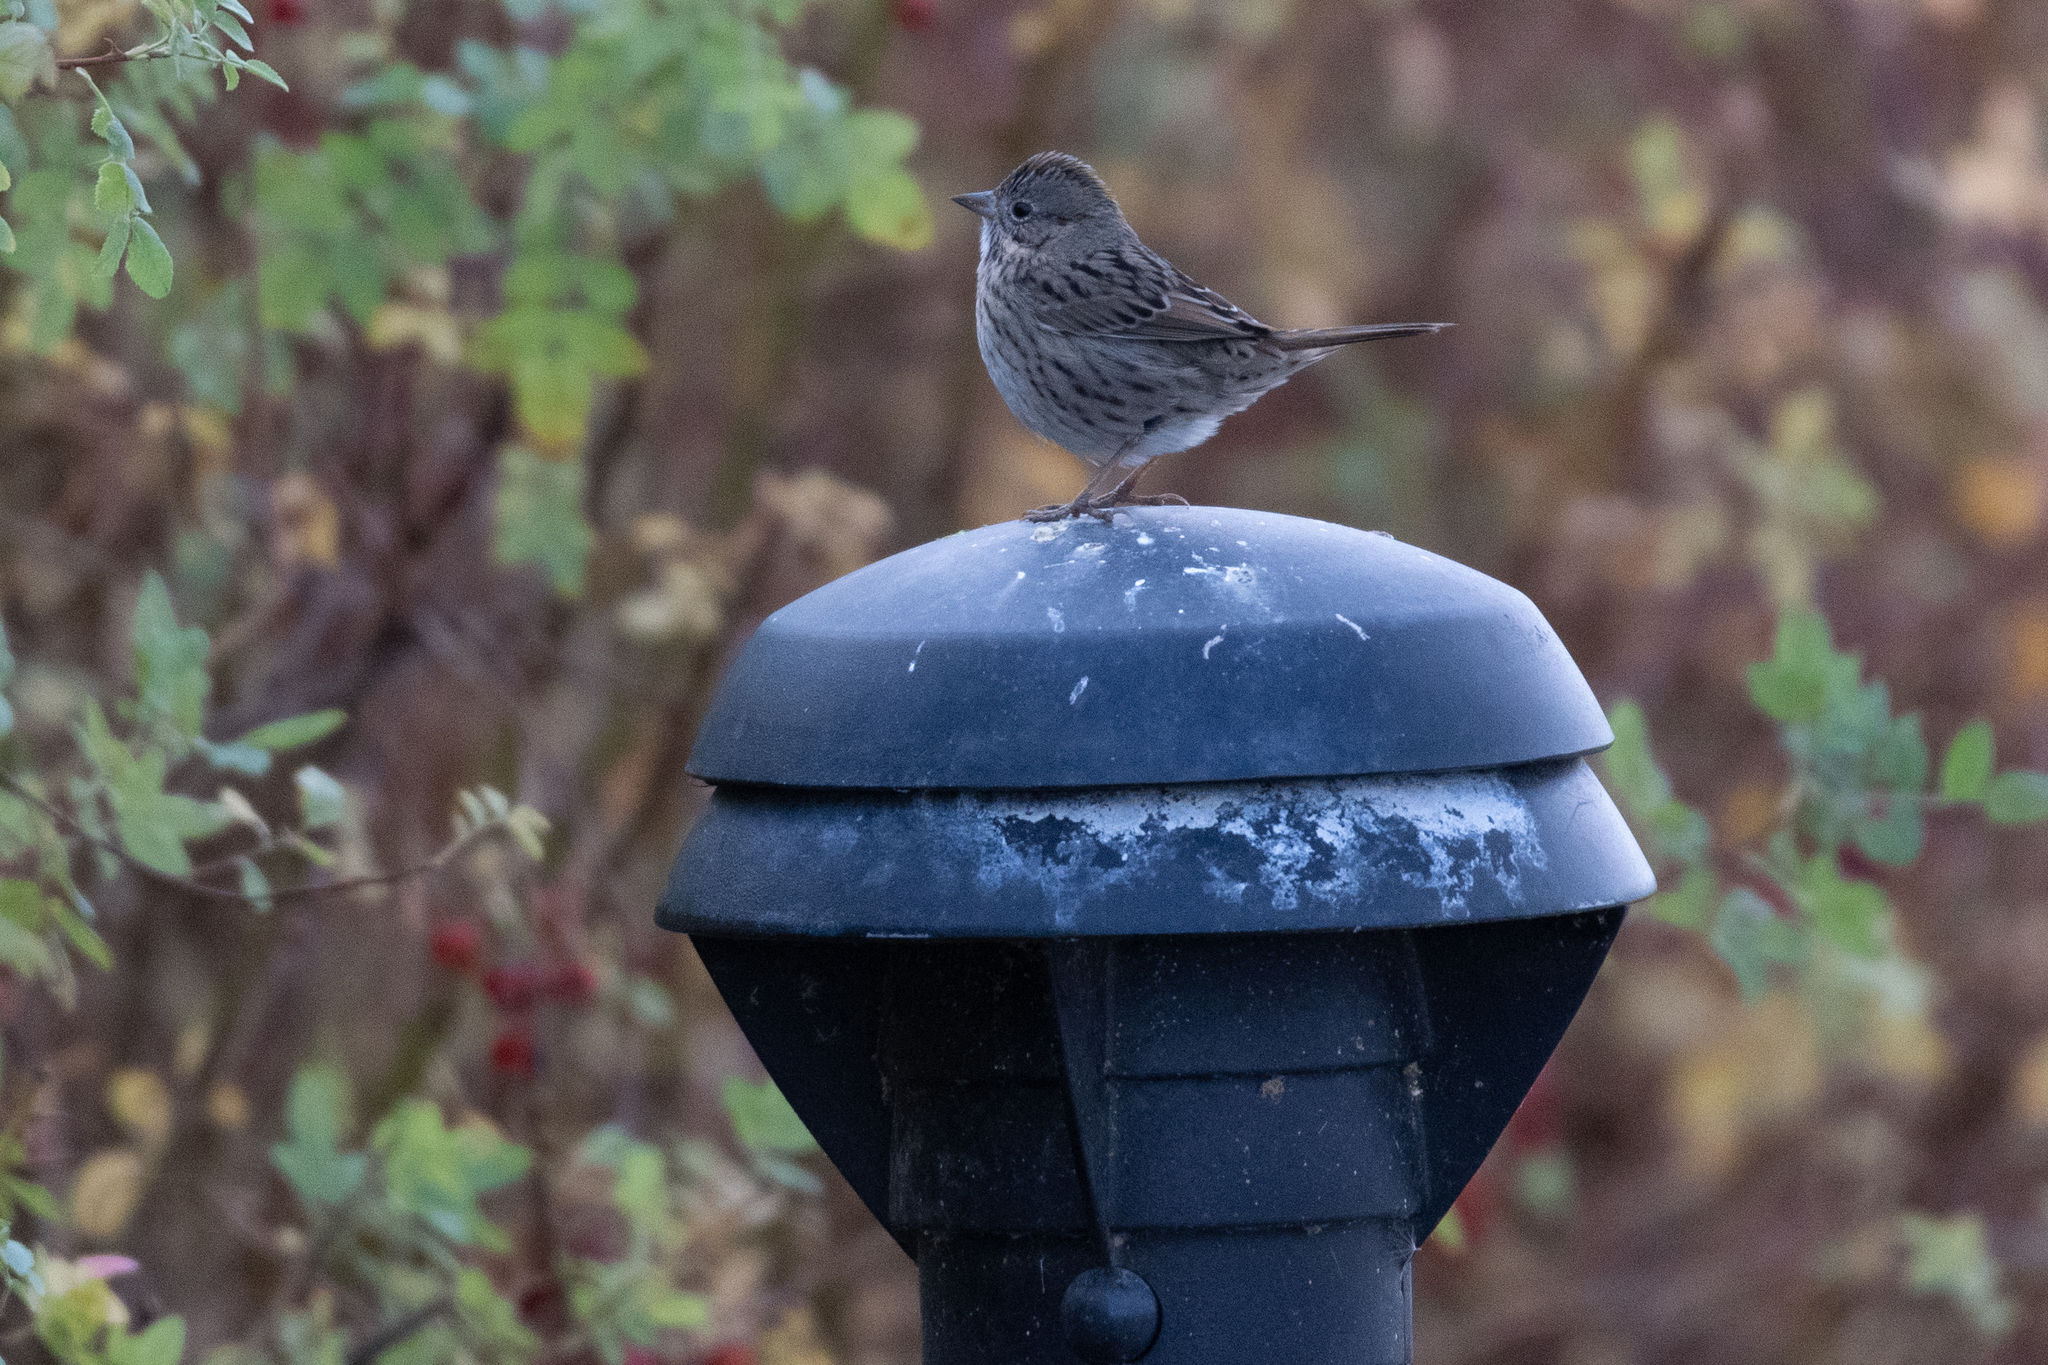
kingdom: Animalia
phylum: Chordata
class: Aves
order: Passeriformes
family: Passerellidae
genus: Melospiza
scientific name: Melospiza lincolnii
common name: Lincoln's sparrow
